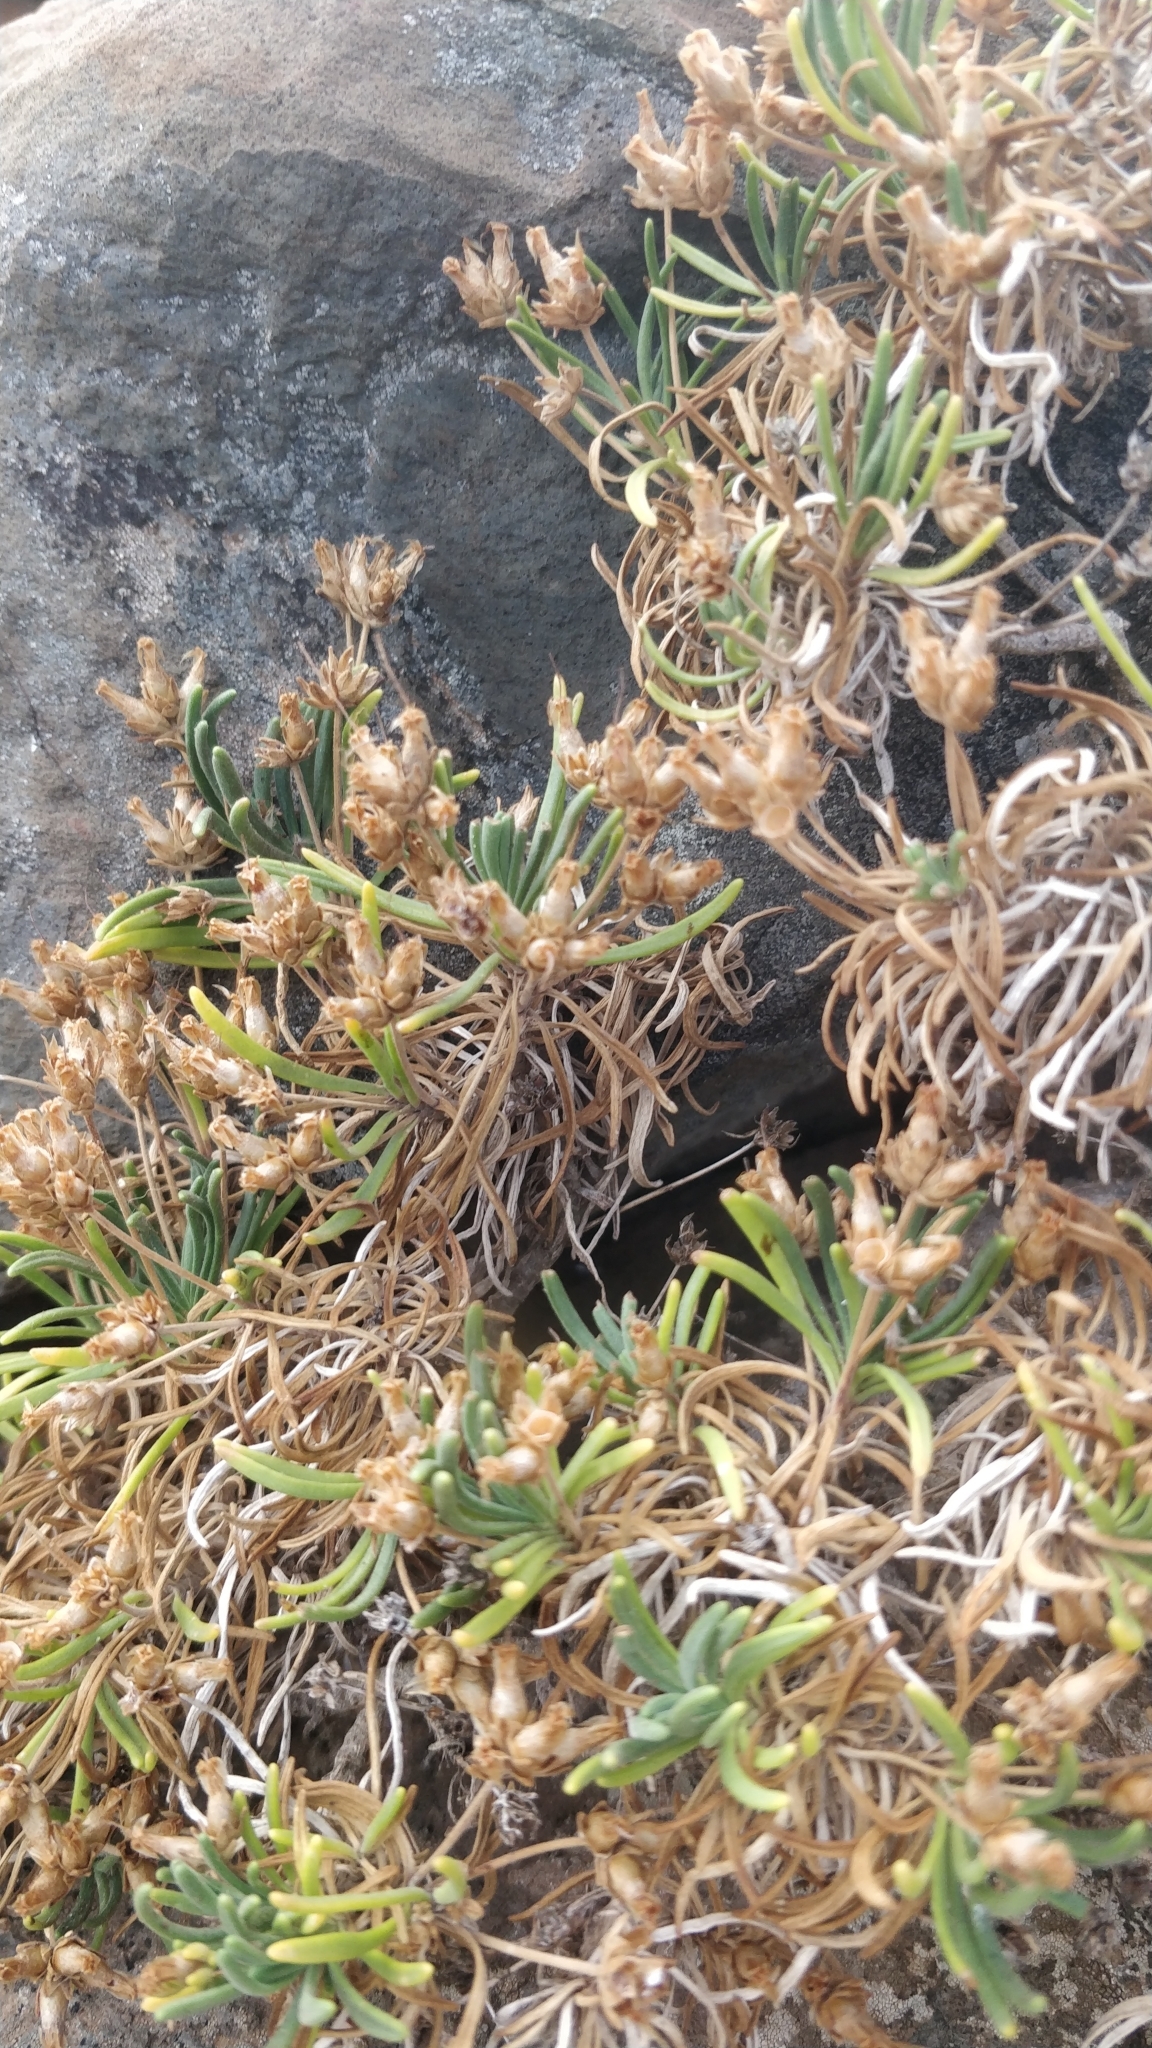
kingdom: Plantae
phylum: Tracheophyta
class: Magnoliopsida
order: Lamiales
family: Plantaginaceae
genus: Plantago
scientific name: Plantago arborescens
